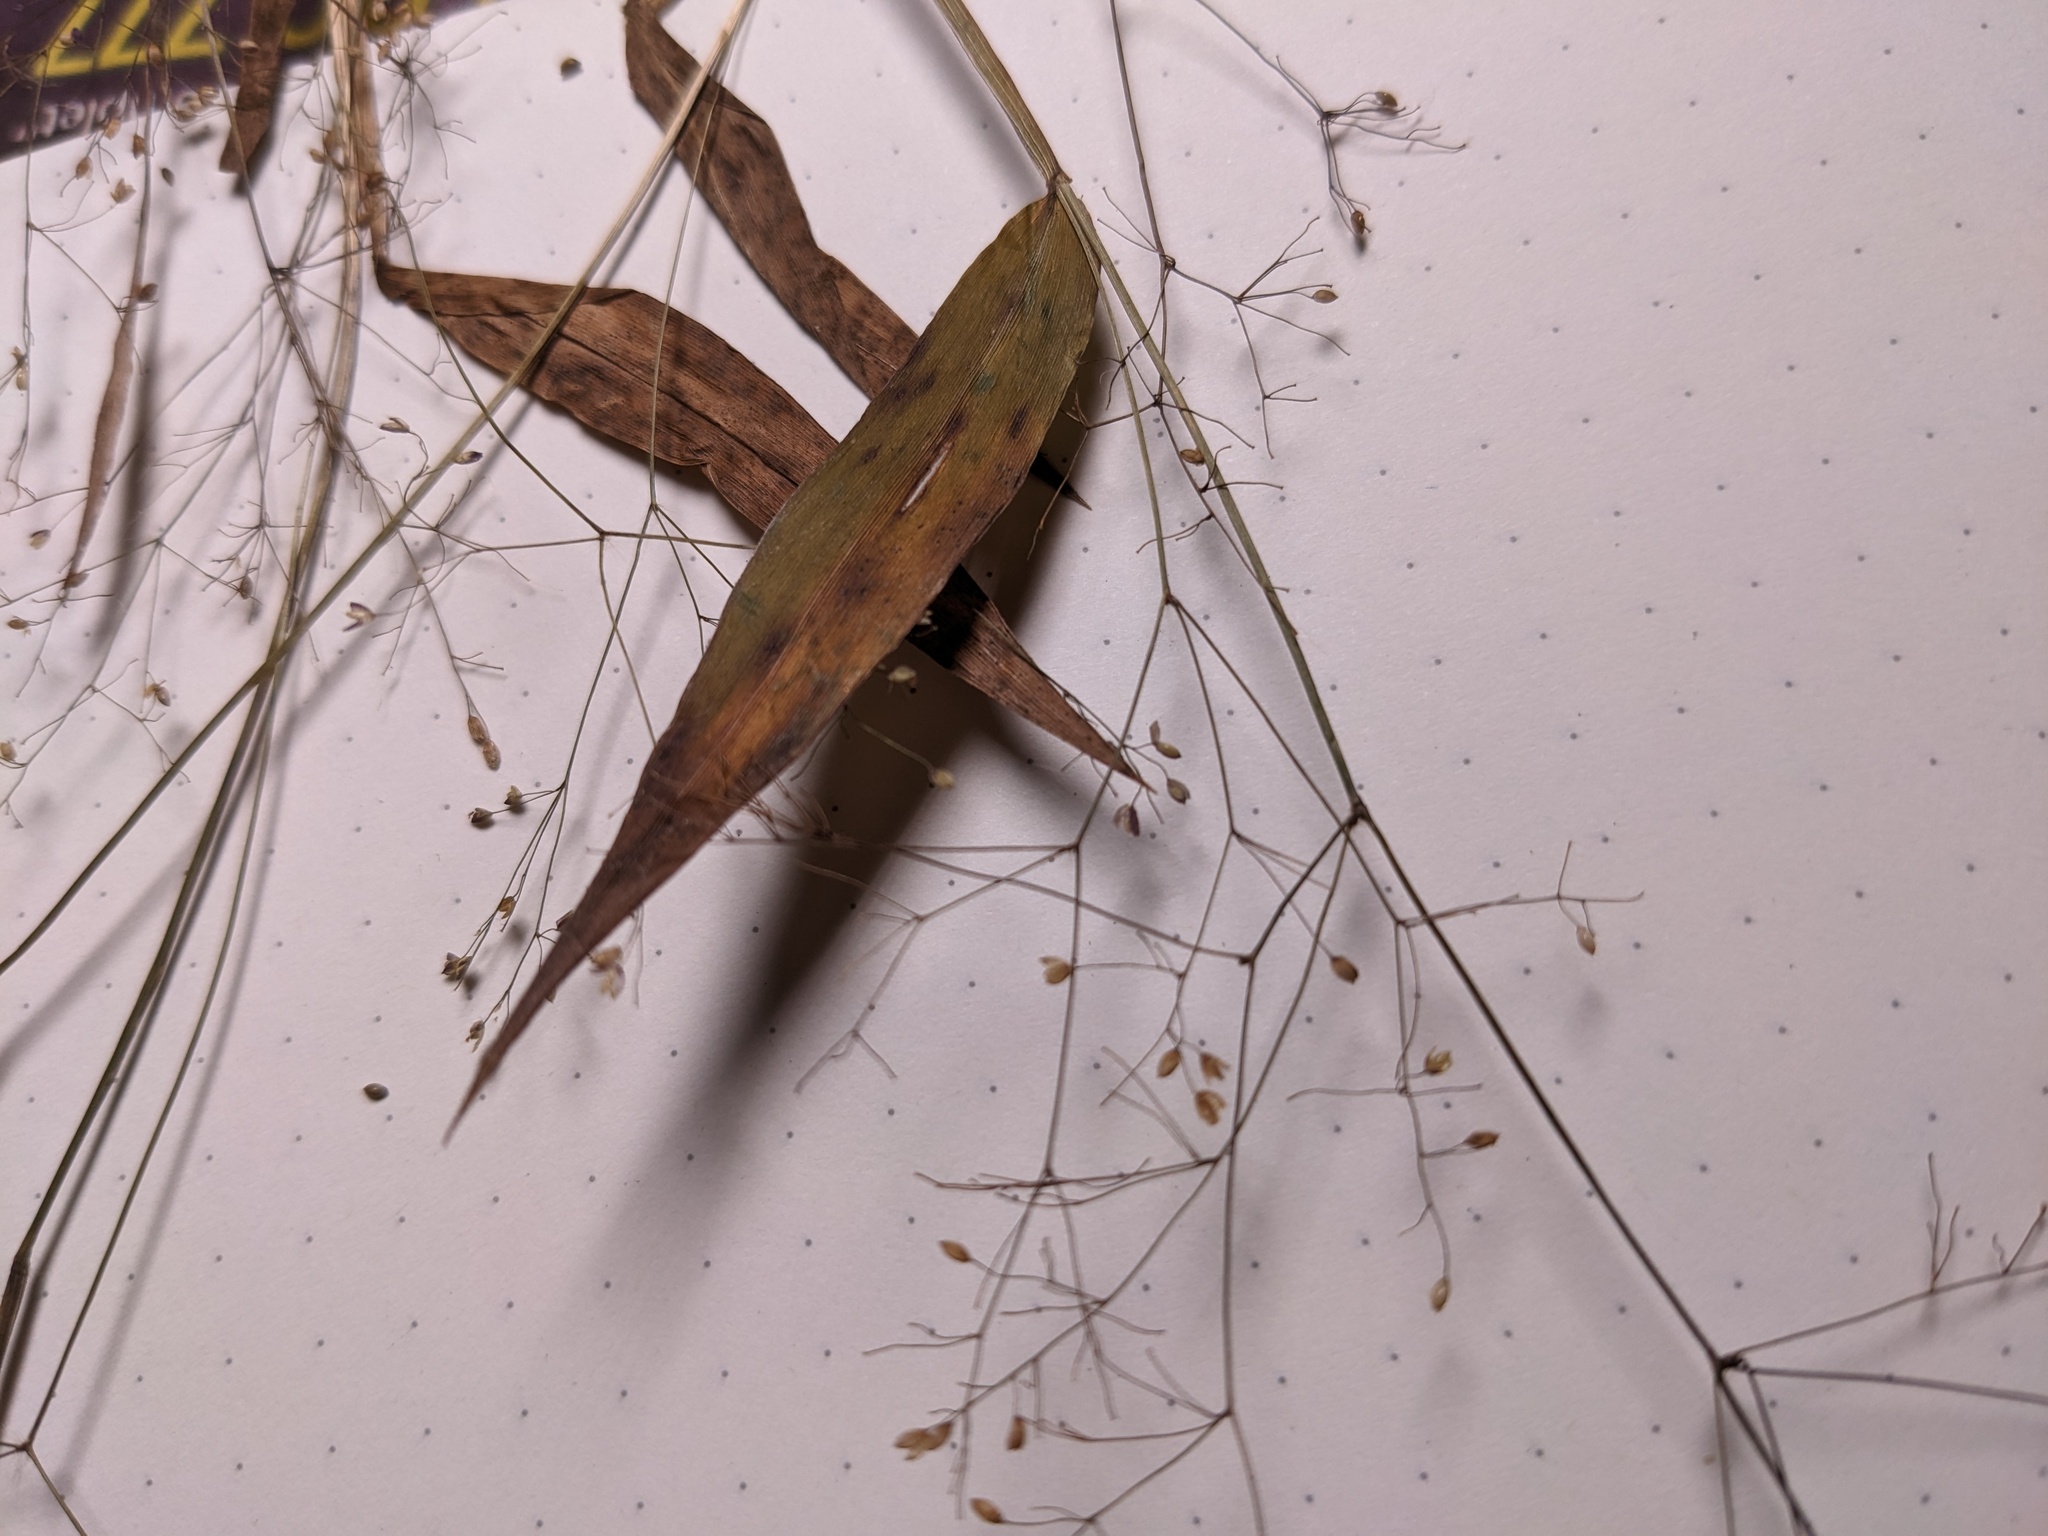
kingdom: Plantae
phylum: Tracheophyta
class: Liliopsida
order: Poales
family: Poaceae
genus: Panicum
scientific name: Panicum flacourtii
